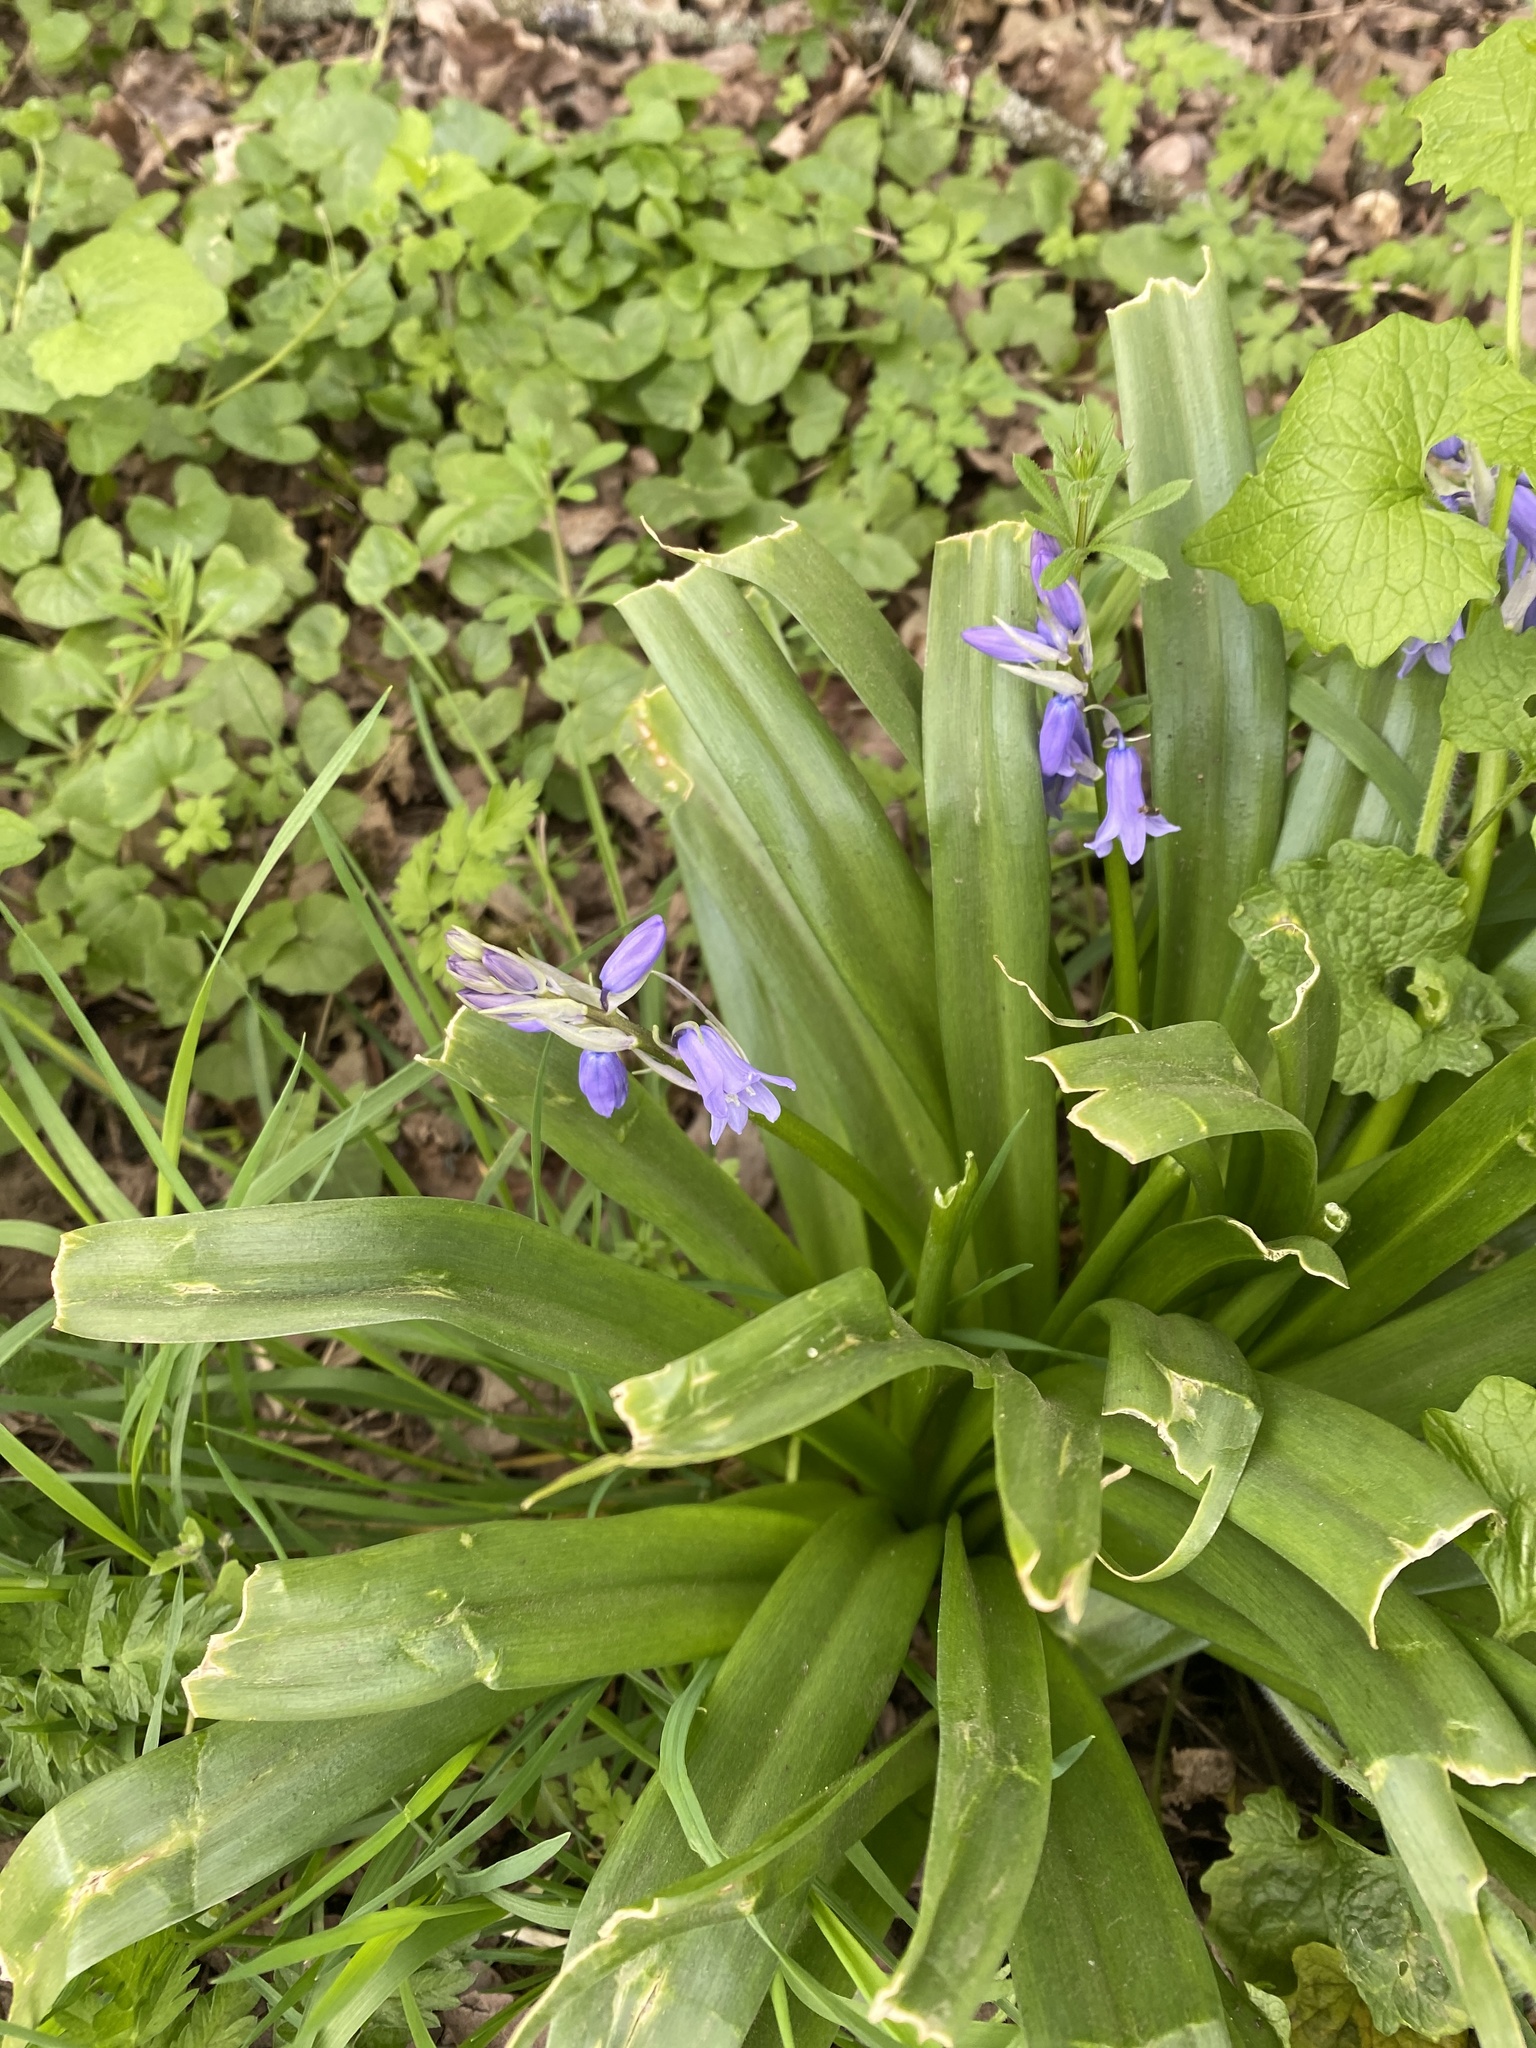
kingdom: Plantae
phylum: Tracheophyta
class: Liliopsida
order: Asparagales
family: Asparagaceae
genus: Hyacinthoides
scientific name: Hyacinthoides non-scripta
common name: Bluebell
